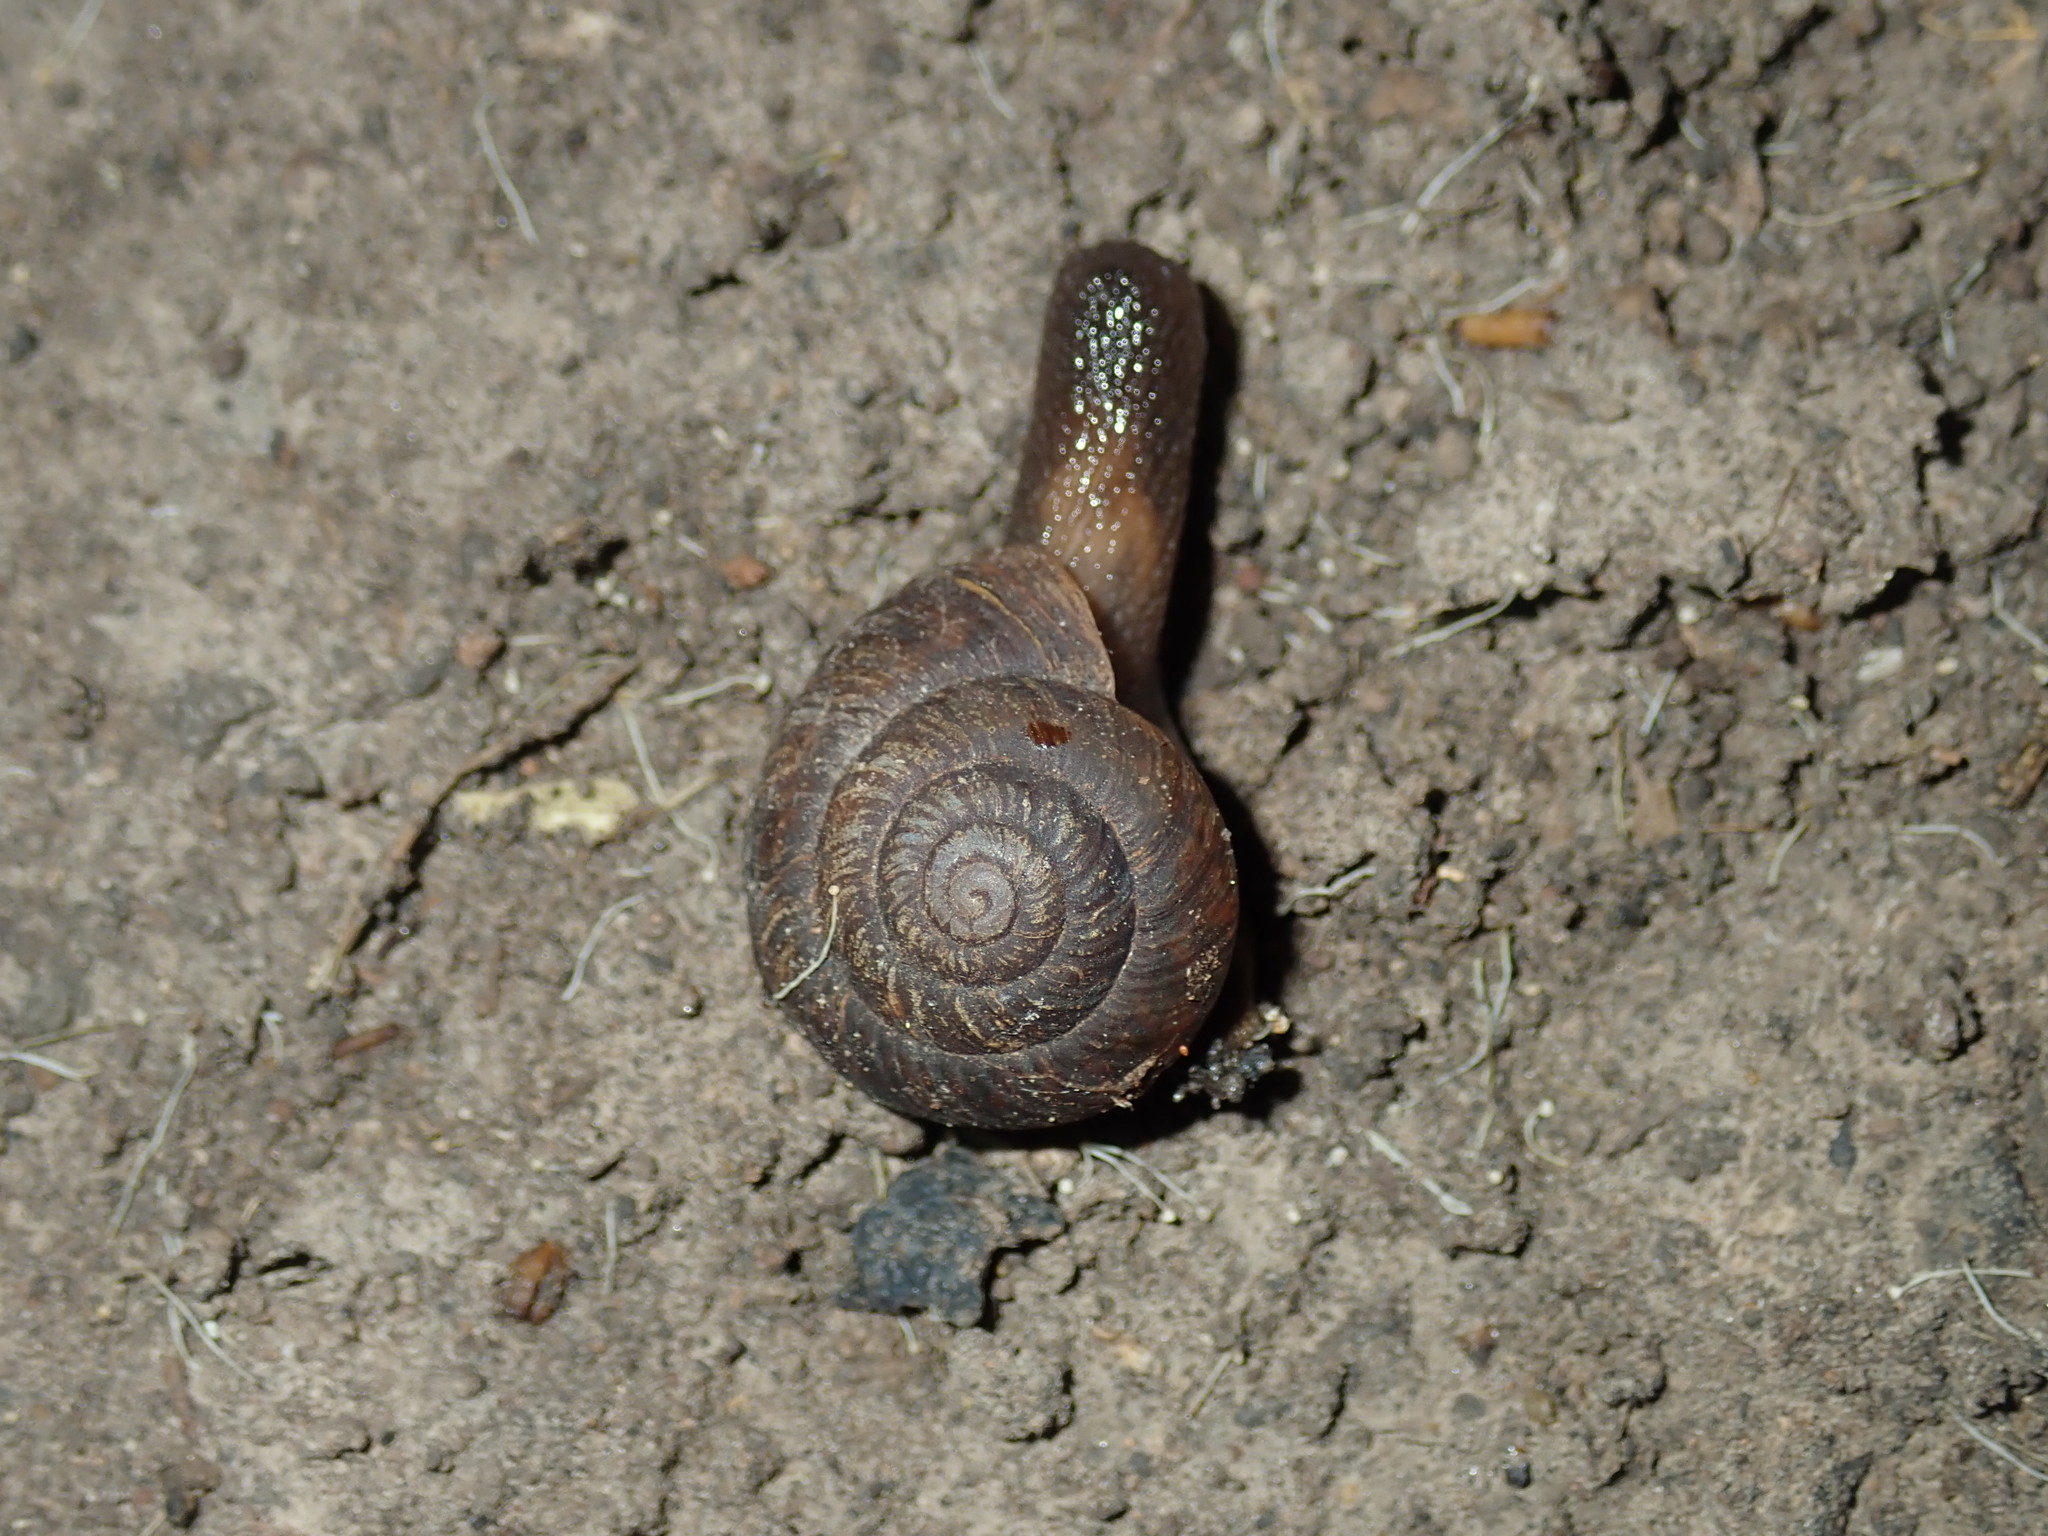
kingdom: Animalia
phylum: Mollusca
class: Gastropoda
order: Stylommatophora
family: Camaenidae
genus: Sauroconcha
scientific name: Sauroconcha sheai
